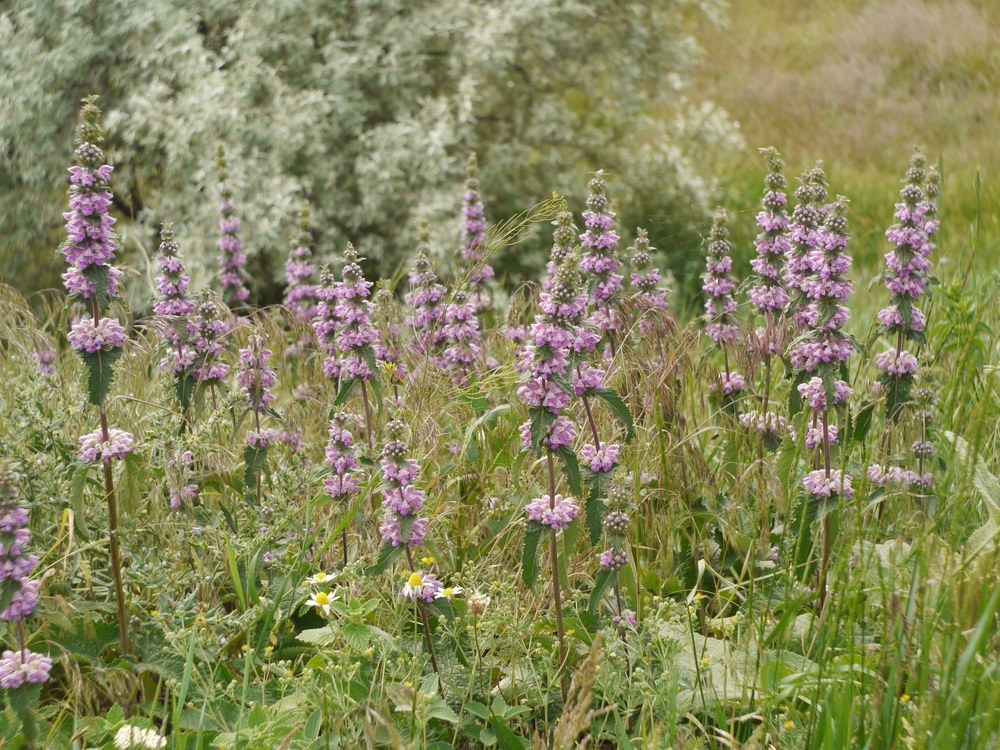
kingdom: Plantae
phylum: Tracheophyta
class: Magnoliopsida
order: Lamiales
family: Lamiaceae
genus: Phlomoides
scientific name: Phlomoides tuberosa
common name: Tuberous jerusalem sage
